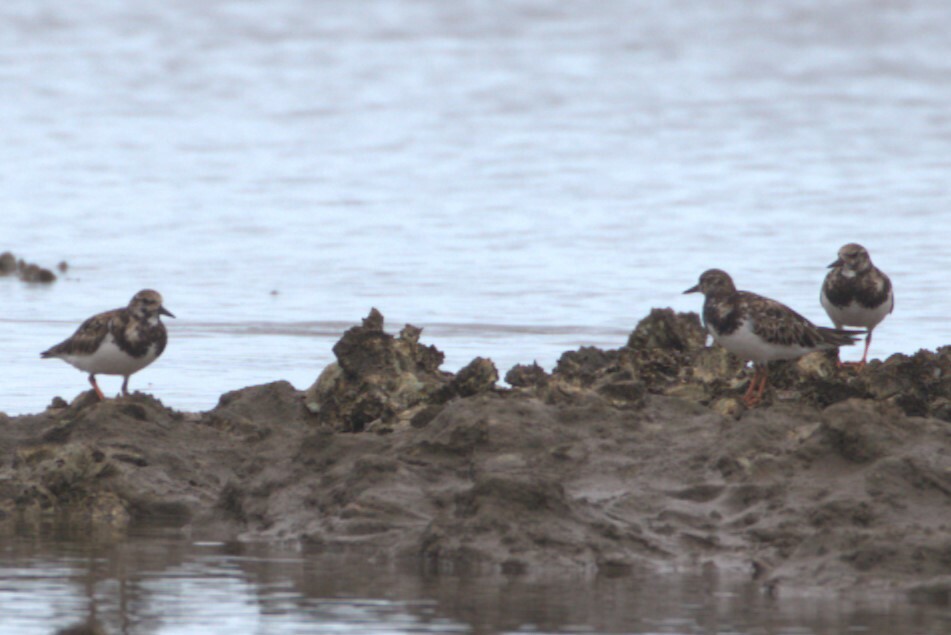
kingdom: Animalia
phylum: Chordata
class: Aves
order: Charadriiformes
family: Scolopacidae
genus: Arenaria
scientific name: Arenaria interpres
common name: Ruddy turnstone
